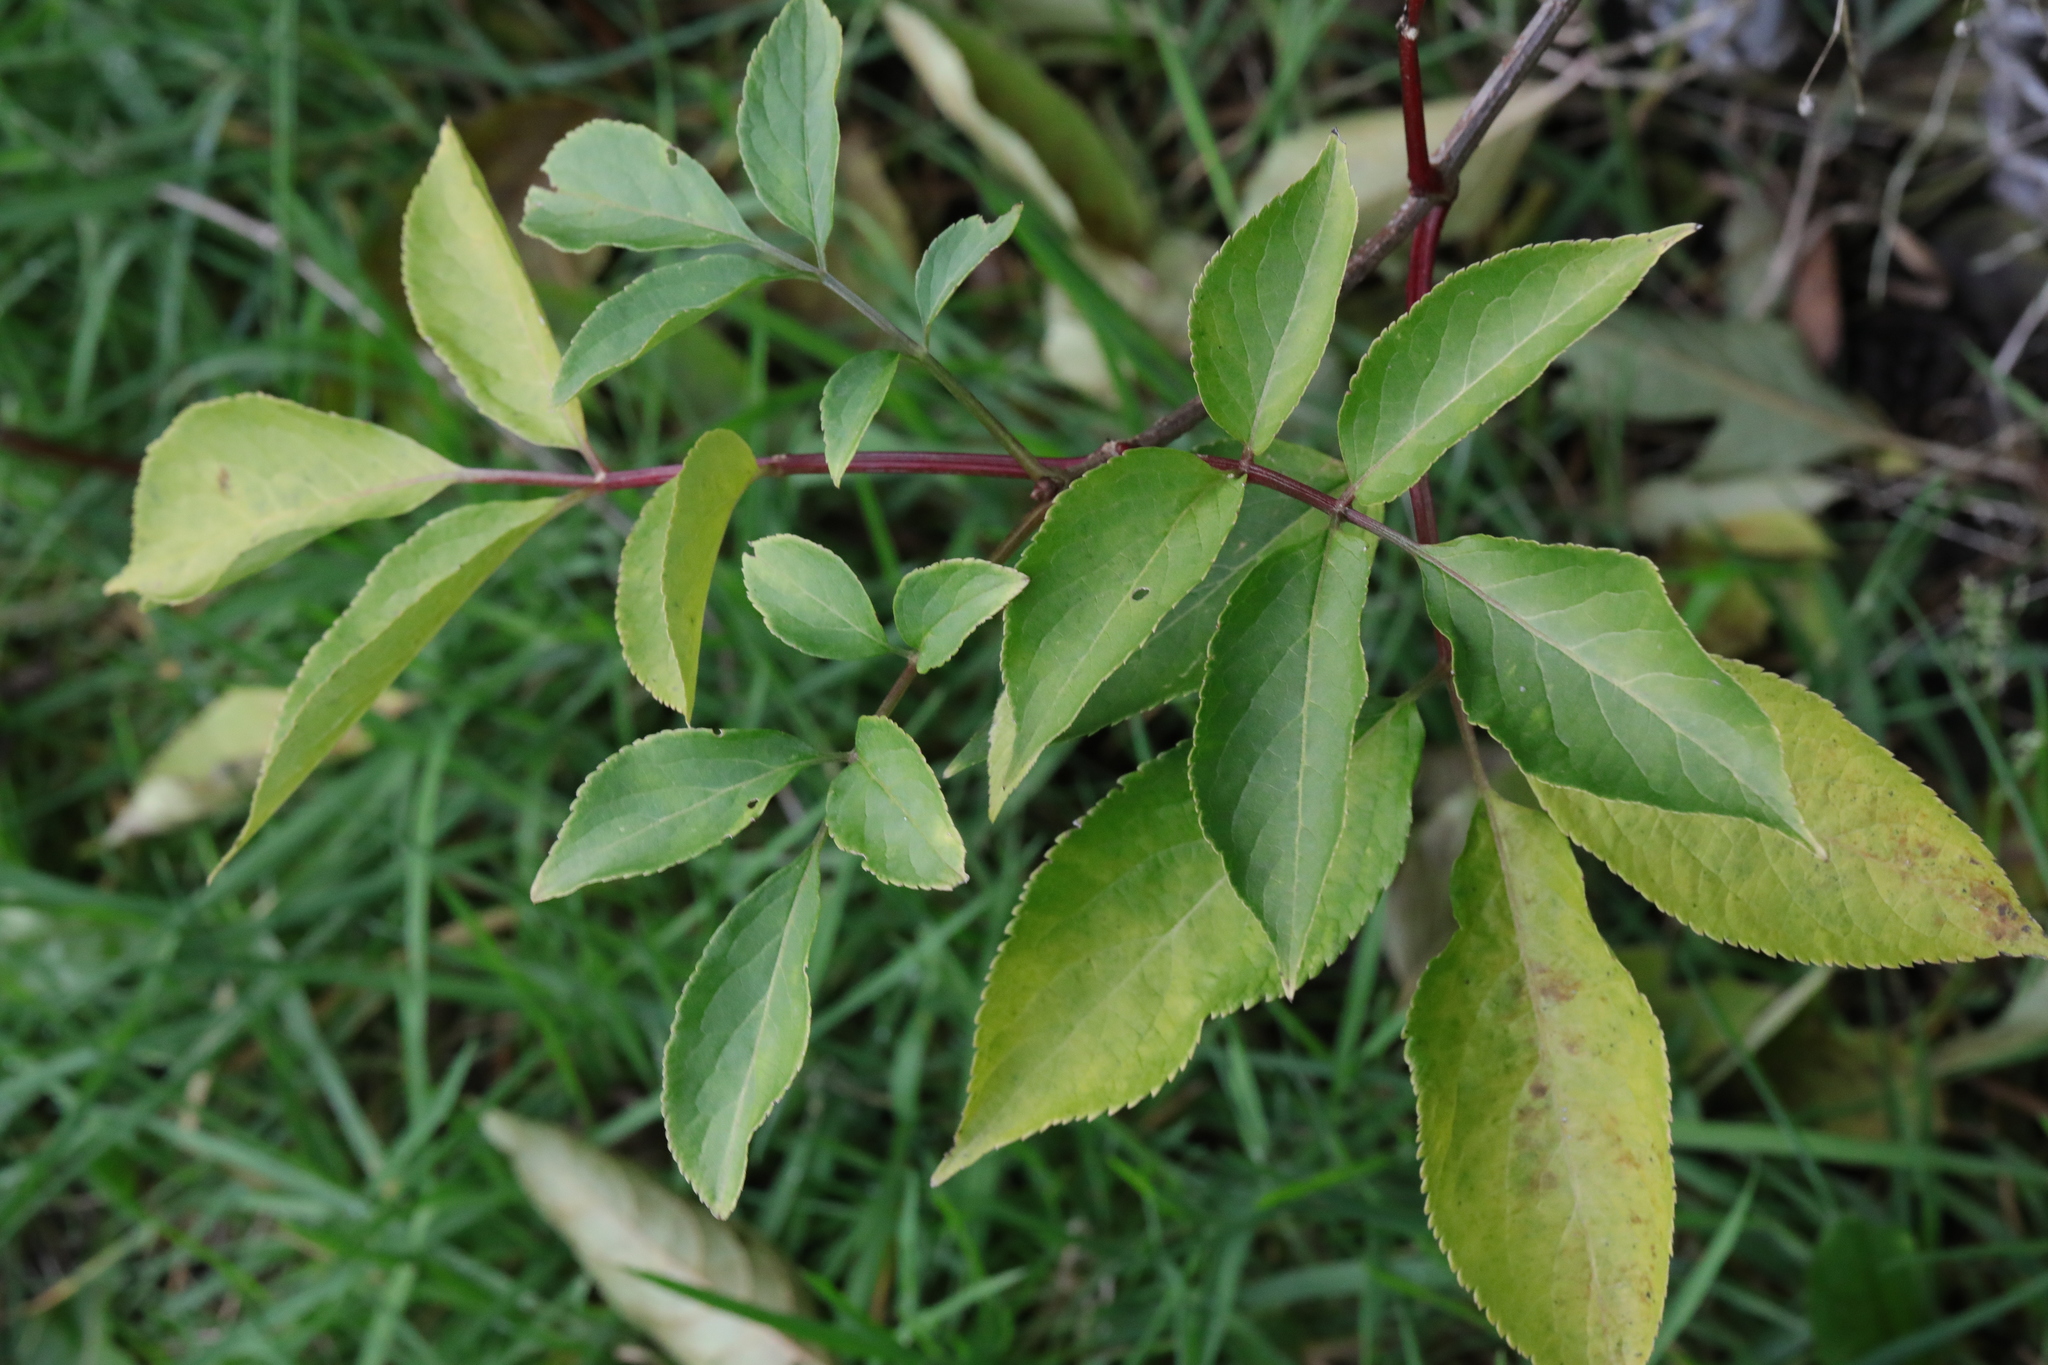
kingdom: Plantae
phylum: Tracheophyta
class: Magnoliopsida
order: Dipsacales
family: Viburnaceae
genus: Sambucus
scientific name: Sambucus nigra
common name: Elder
